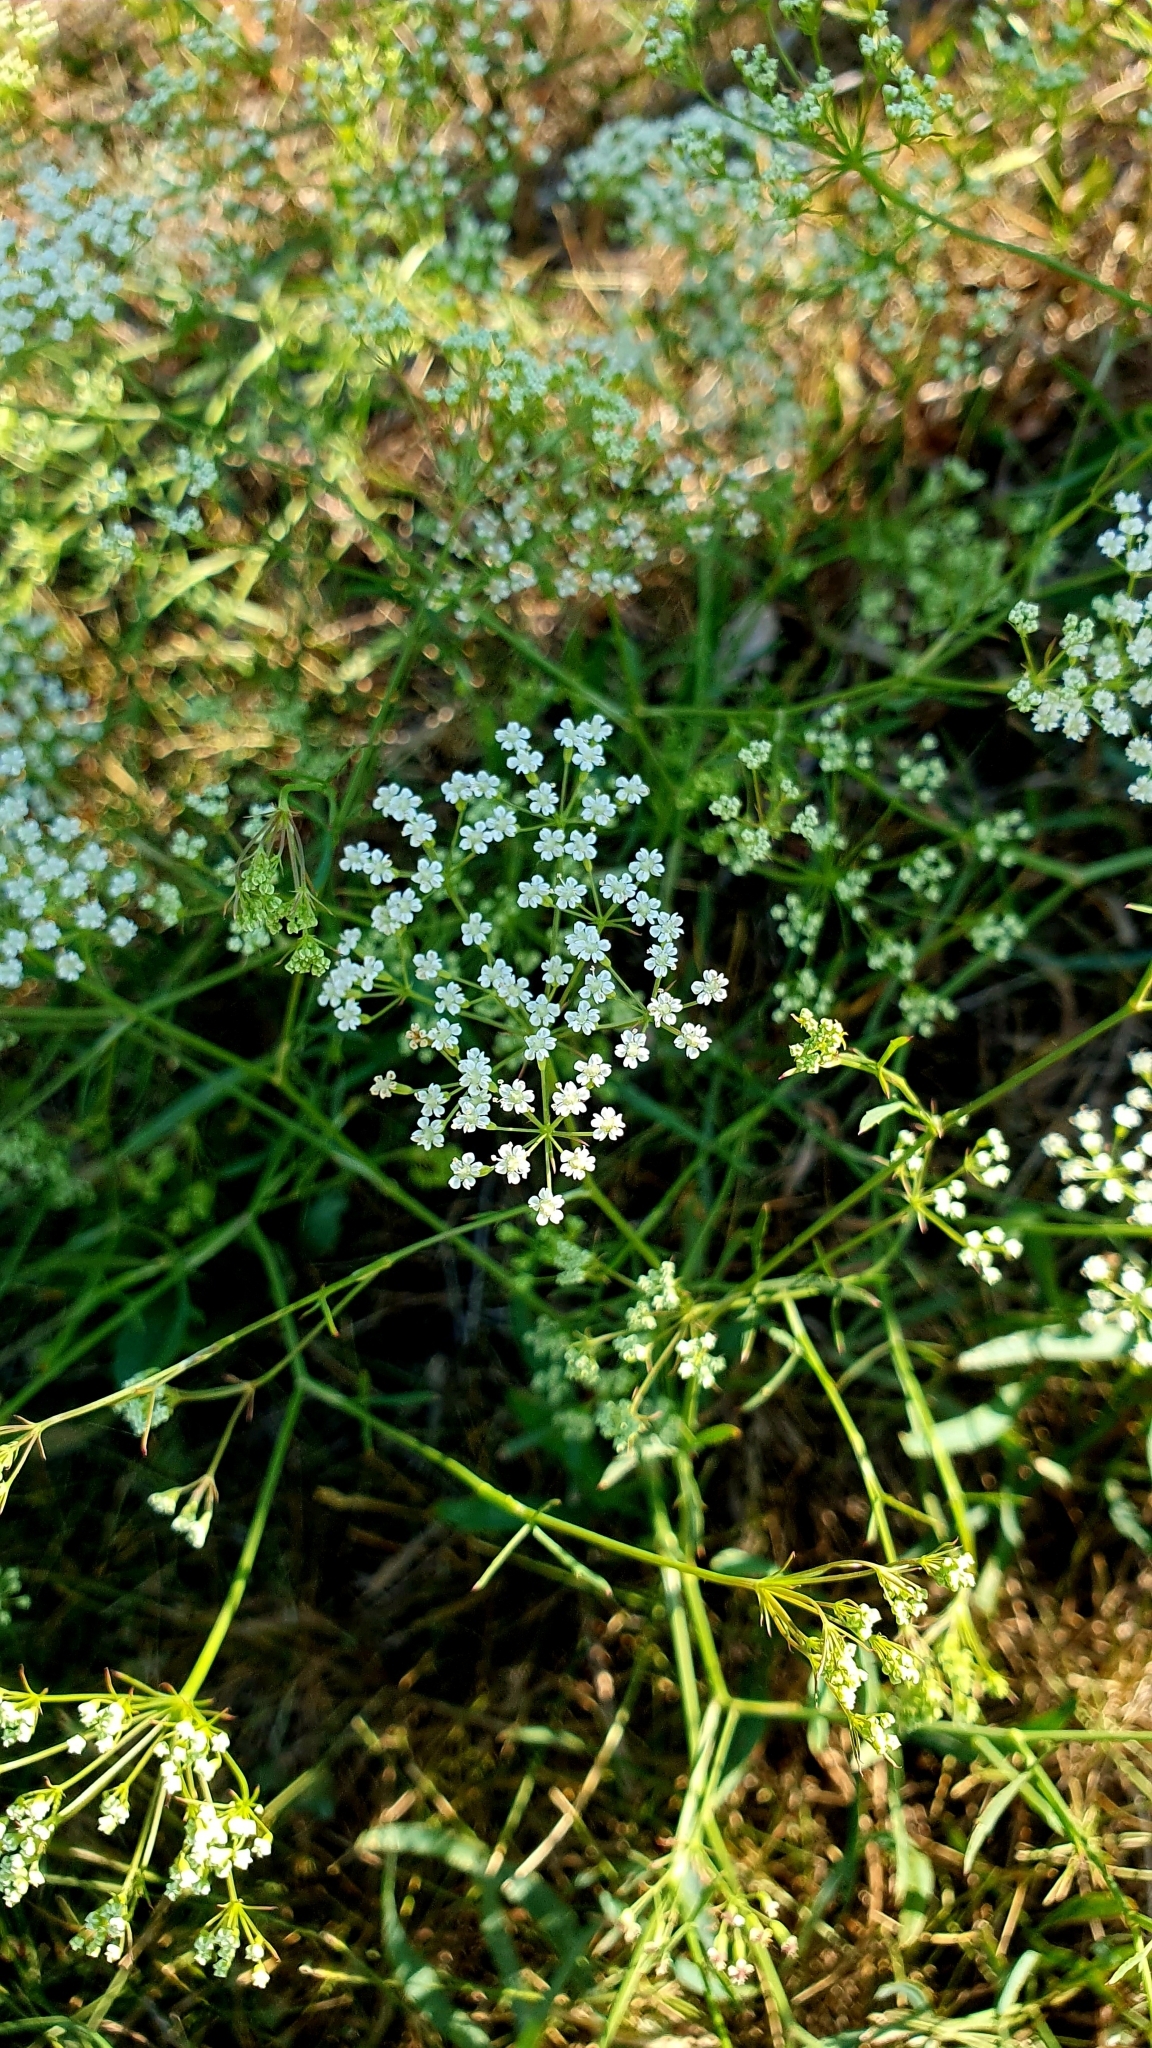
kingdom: Plantae
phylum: Tracheophyta
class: Magnoliopsida
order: Apiales
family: Apiaceae
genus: Falcaria
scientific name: Falcaria vulgaris
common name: Longleaf
